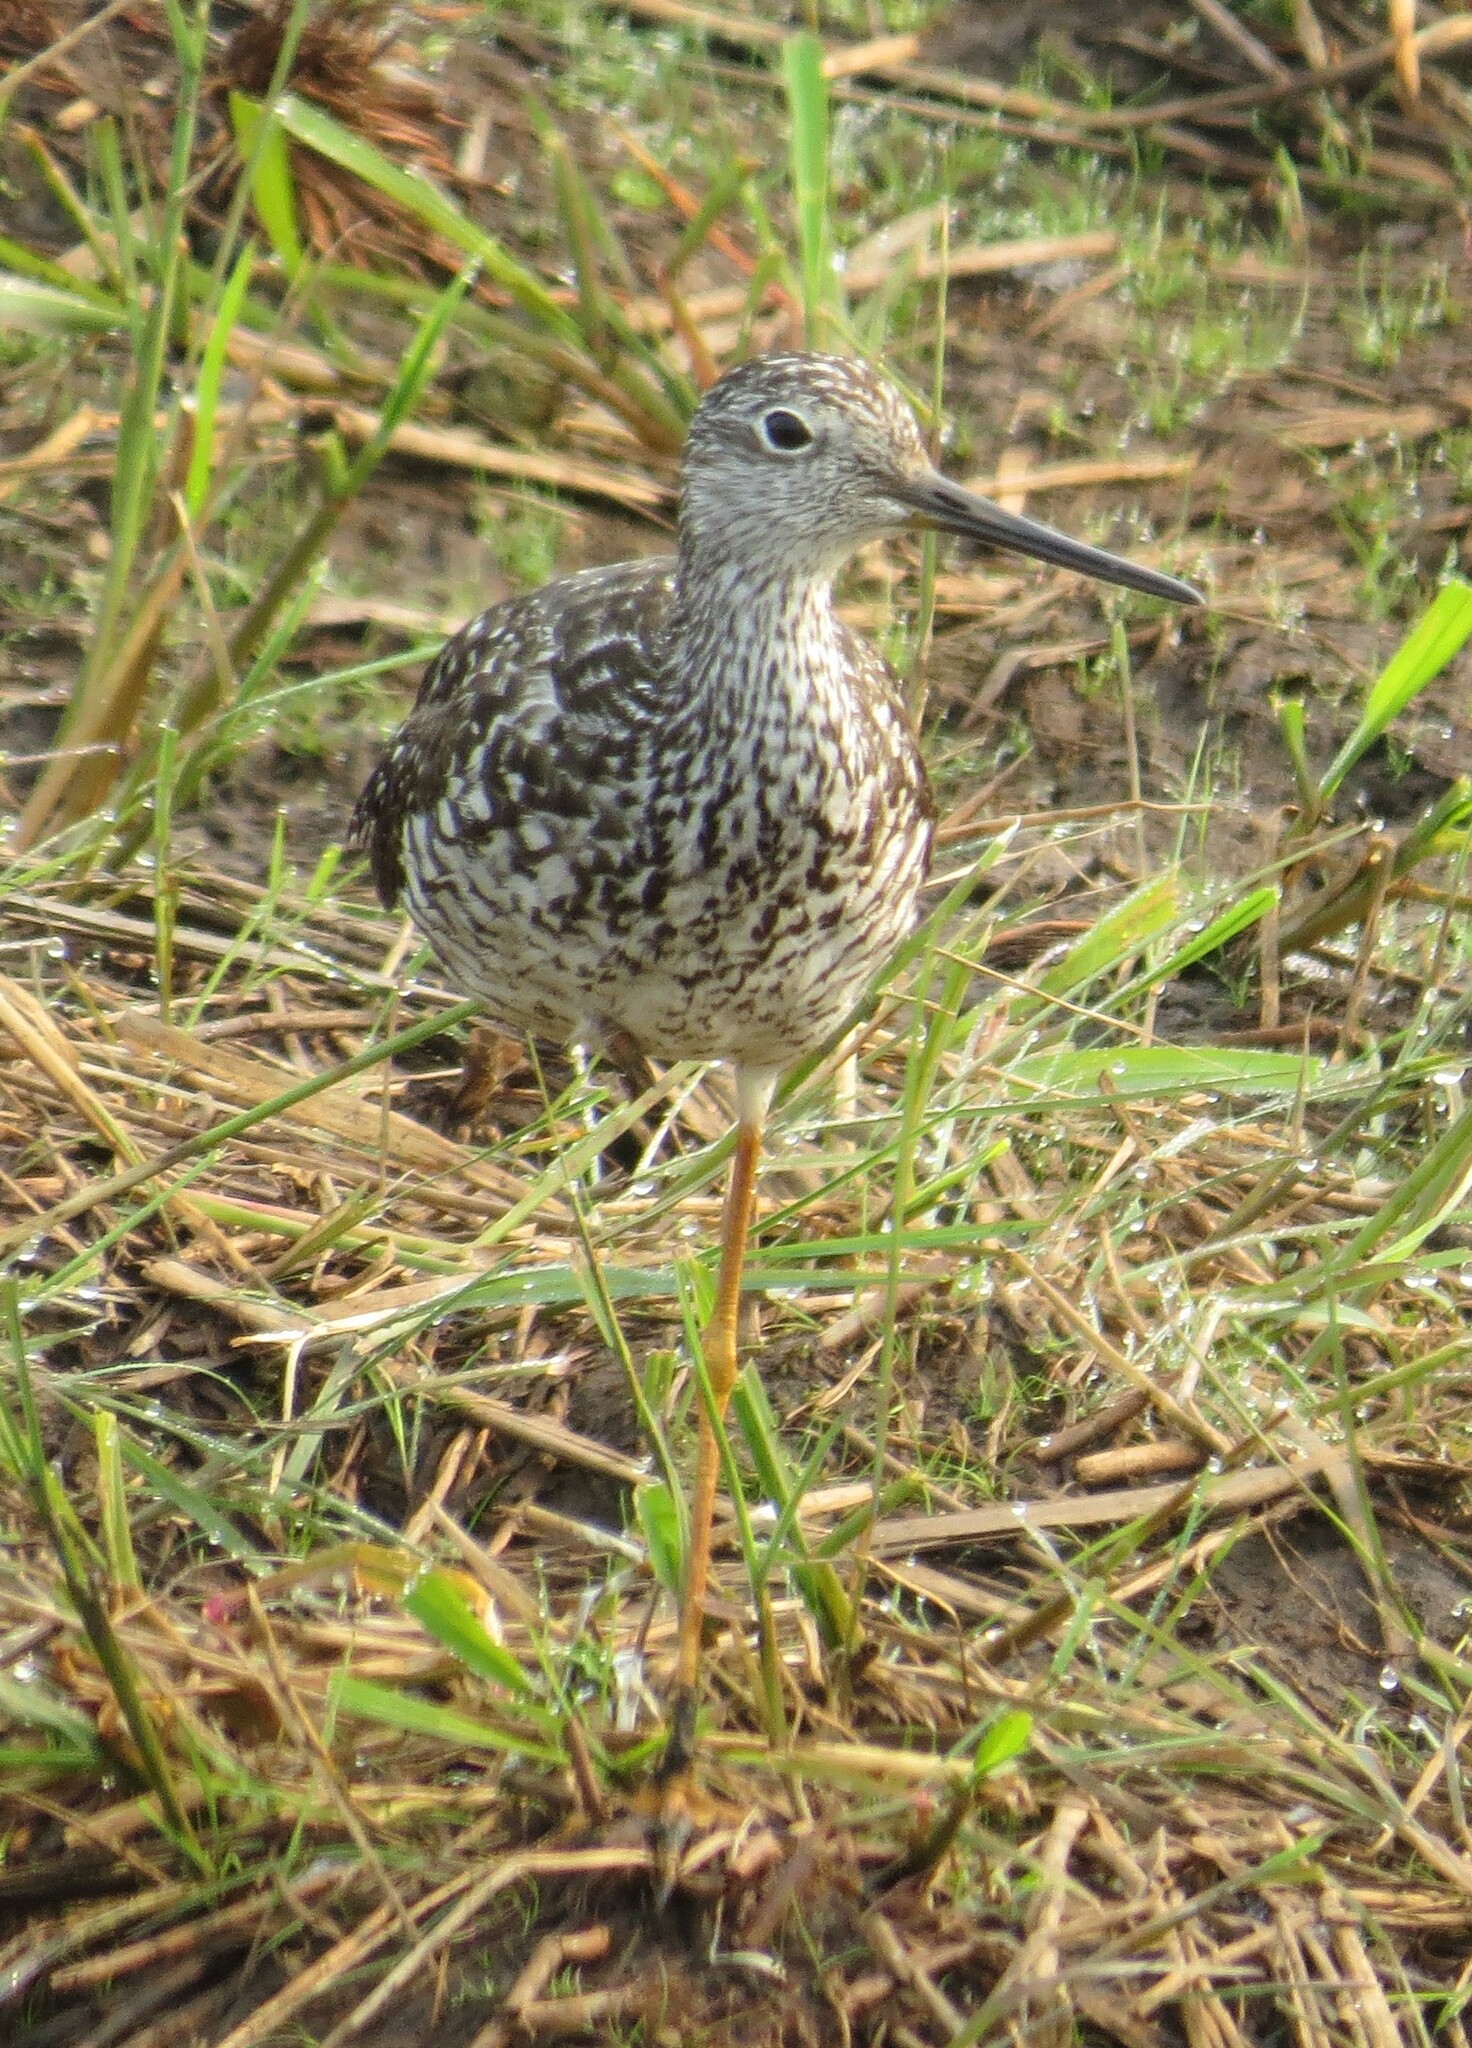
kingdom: Animalia
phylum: Chordata
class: Aves
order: Charadriiformes
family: Scolopacidae
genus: Tringa
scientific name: Tringa melanoleuca
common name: Greater yellowlegs
